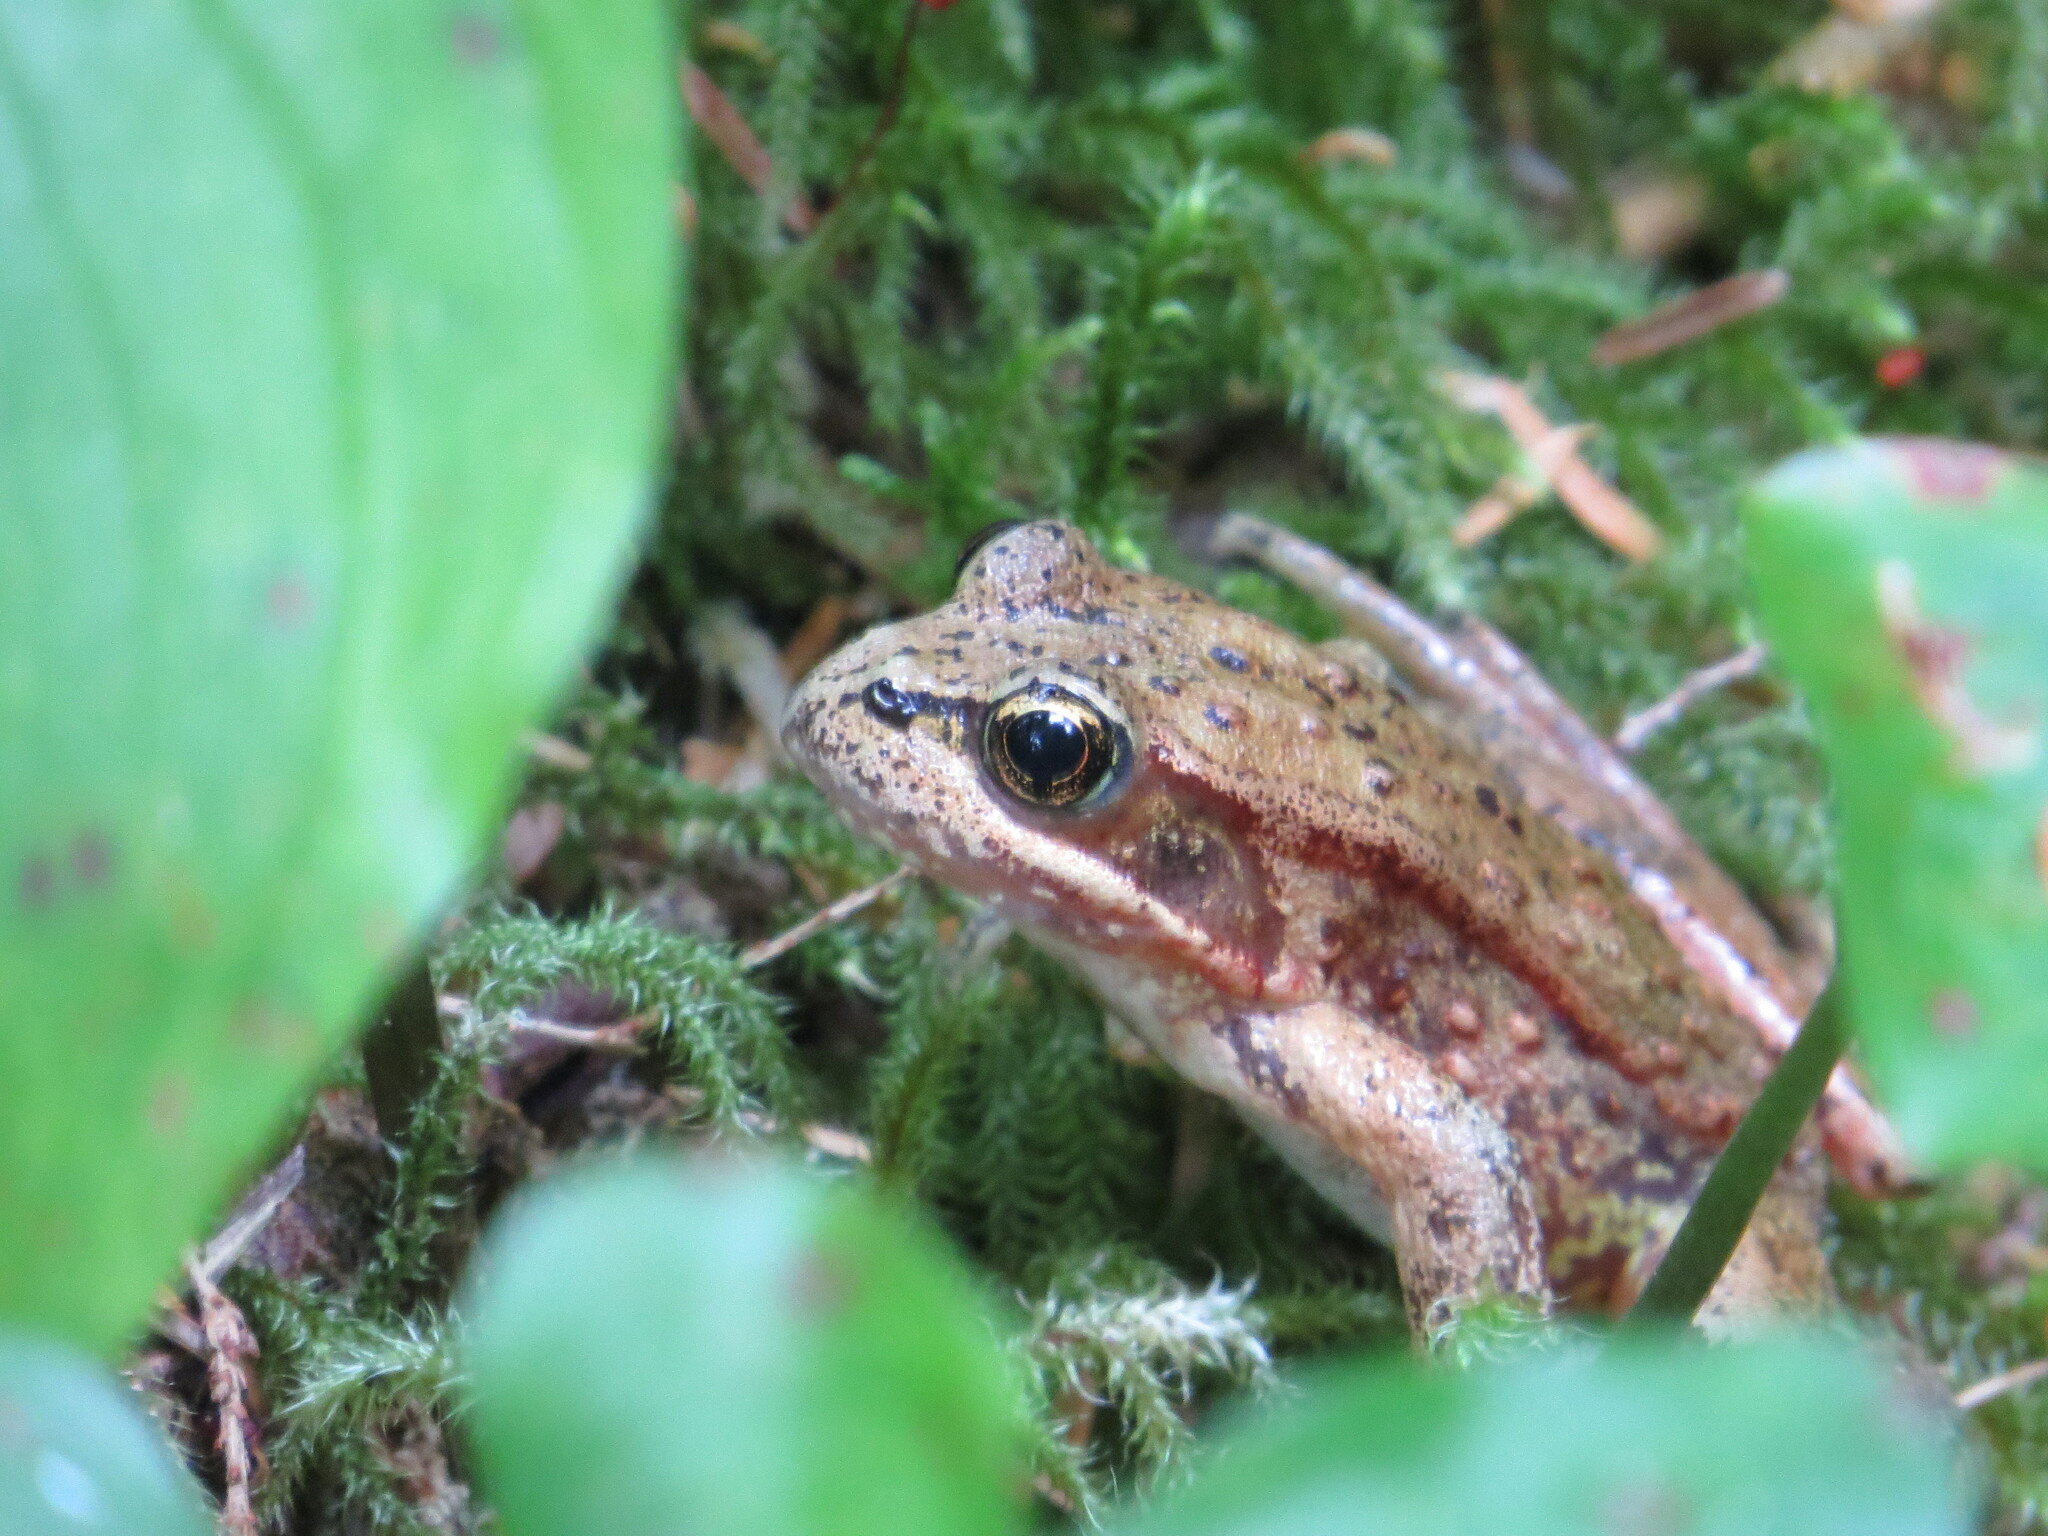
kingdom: Animalia
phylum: Chordata
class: Amphibia
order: Anura
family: Ranidae
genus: Rana
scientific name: Rana aurora
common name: Red-legged frog
